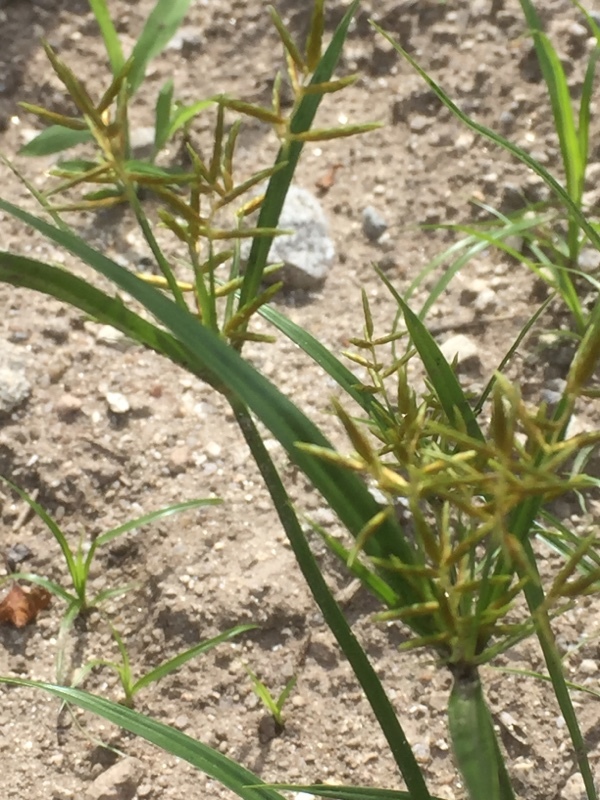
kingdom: Plantae
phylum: Tracheophyta
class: Liliopsida
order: Poales
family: Cyperaceae
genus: Cyperus
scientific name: Cyperus esculentus
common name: Yellow nutsedge
